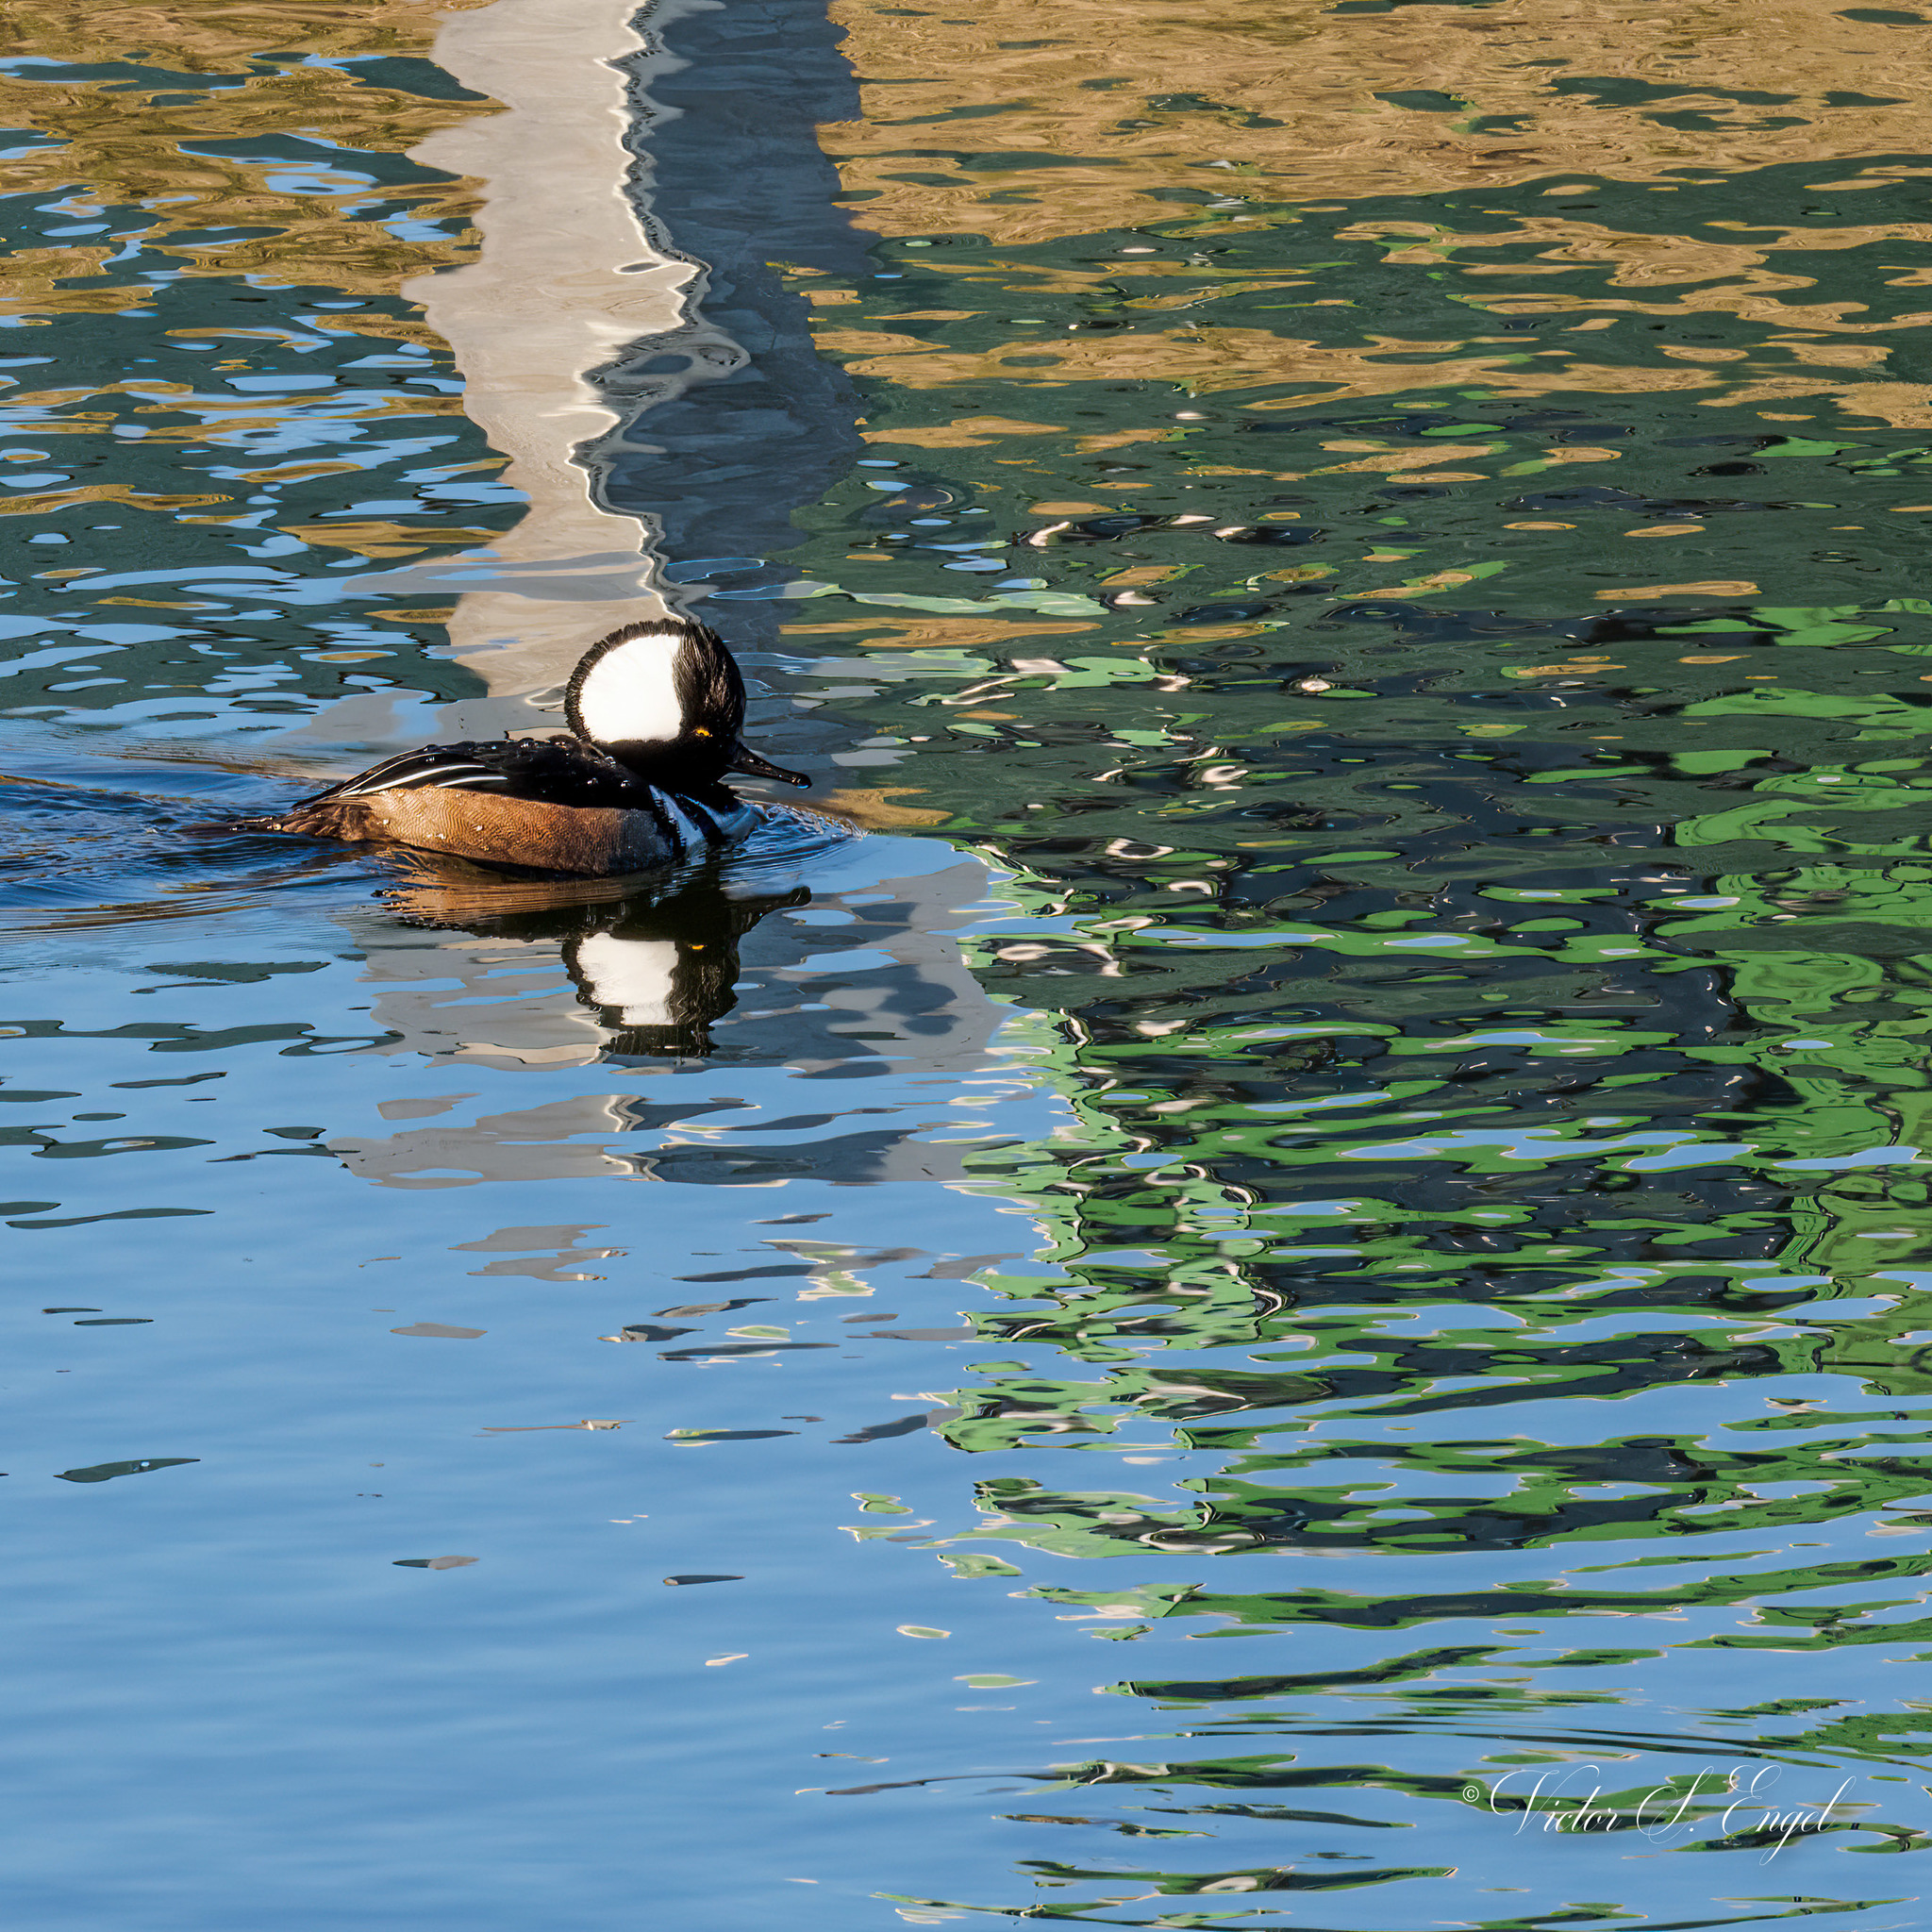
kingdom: Animalia
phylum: Chordata
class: Aves
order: Anseriformes
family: Anatidae
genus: Lophodytes
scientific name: Lophodytes cucullatus
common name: Hooded merganser
